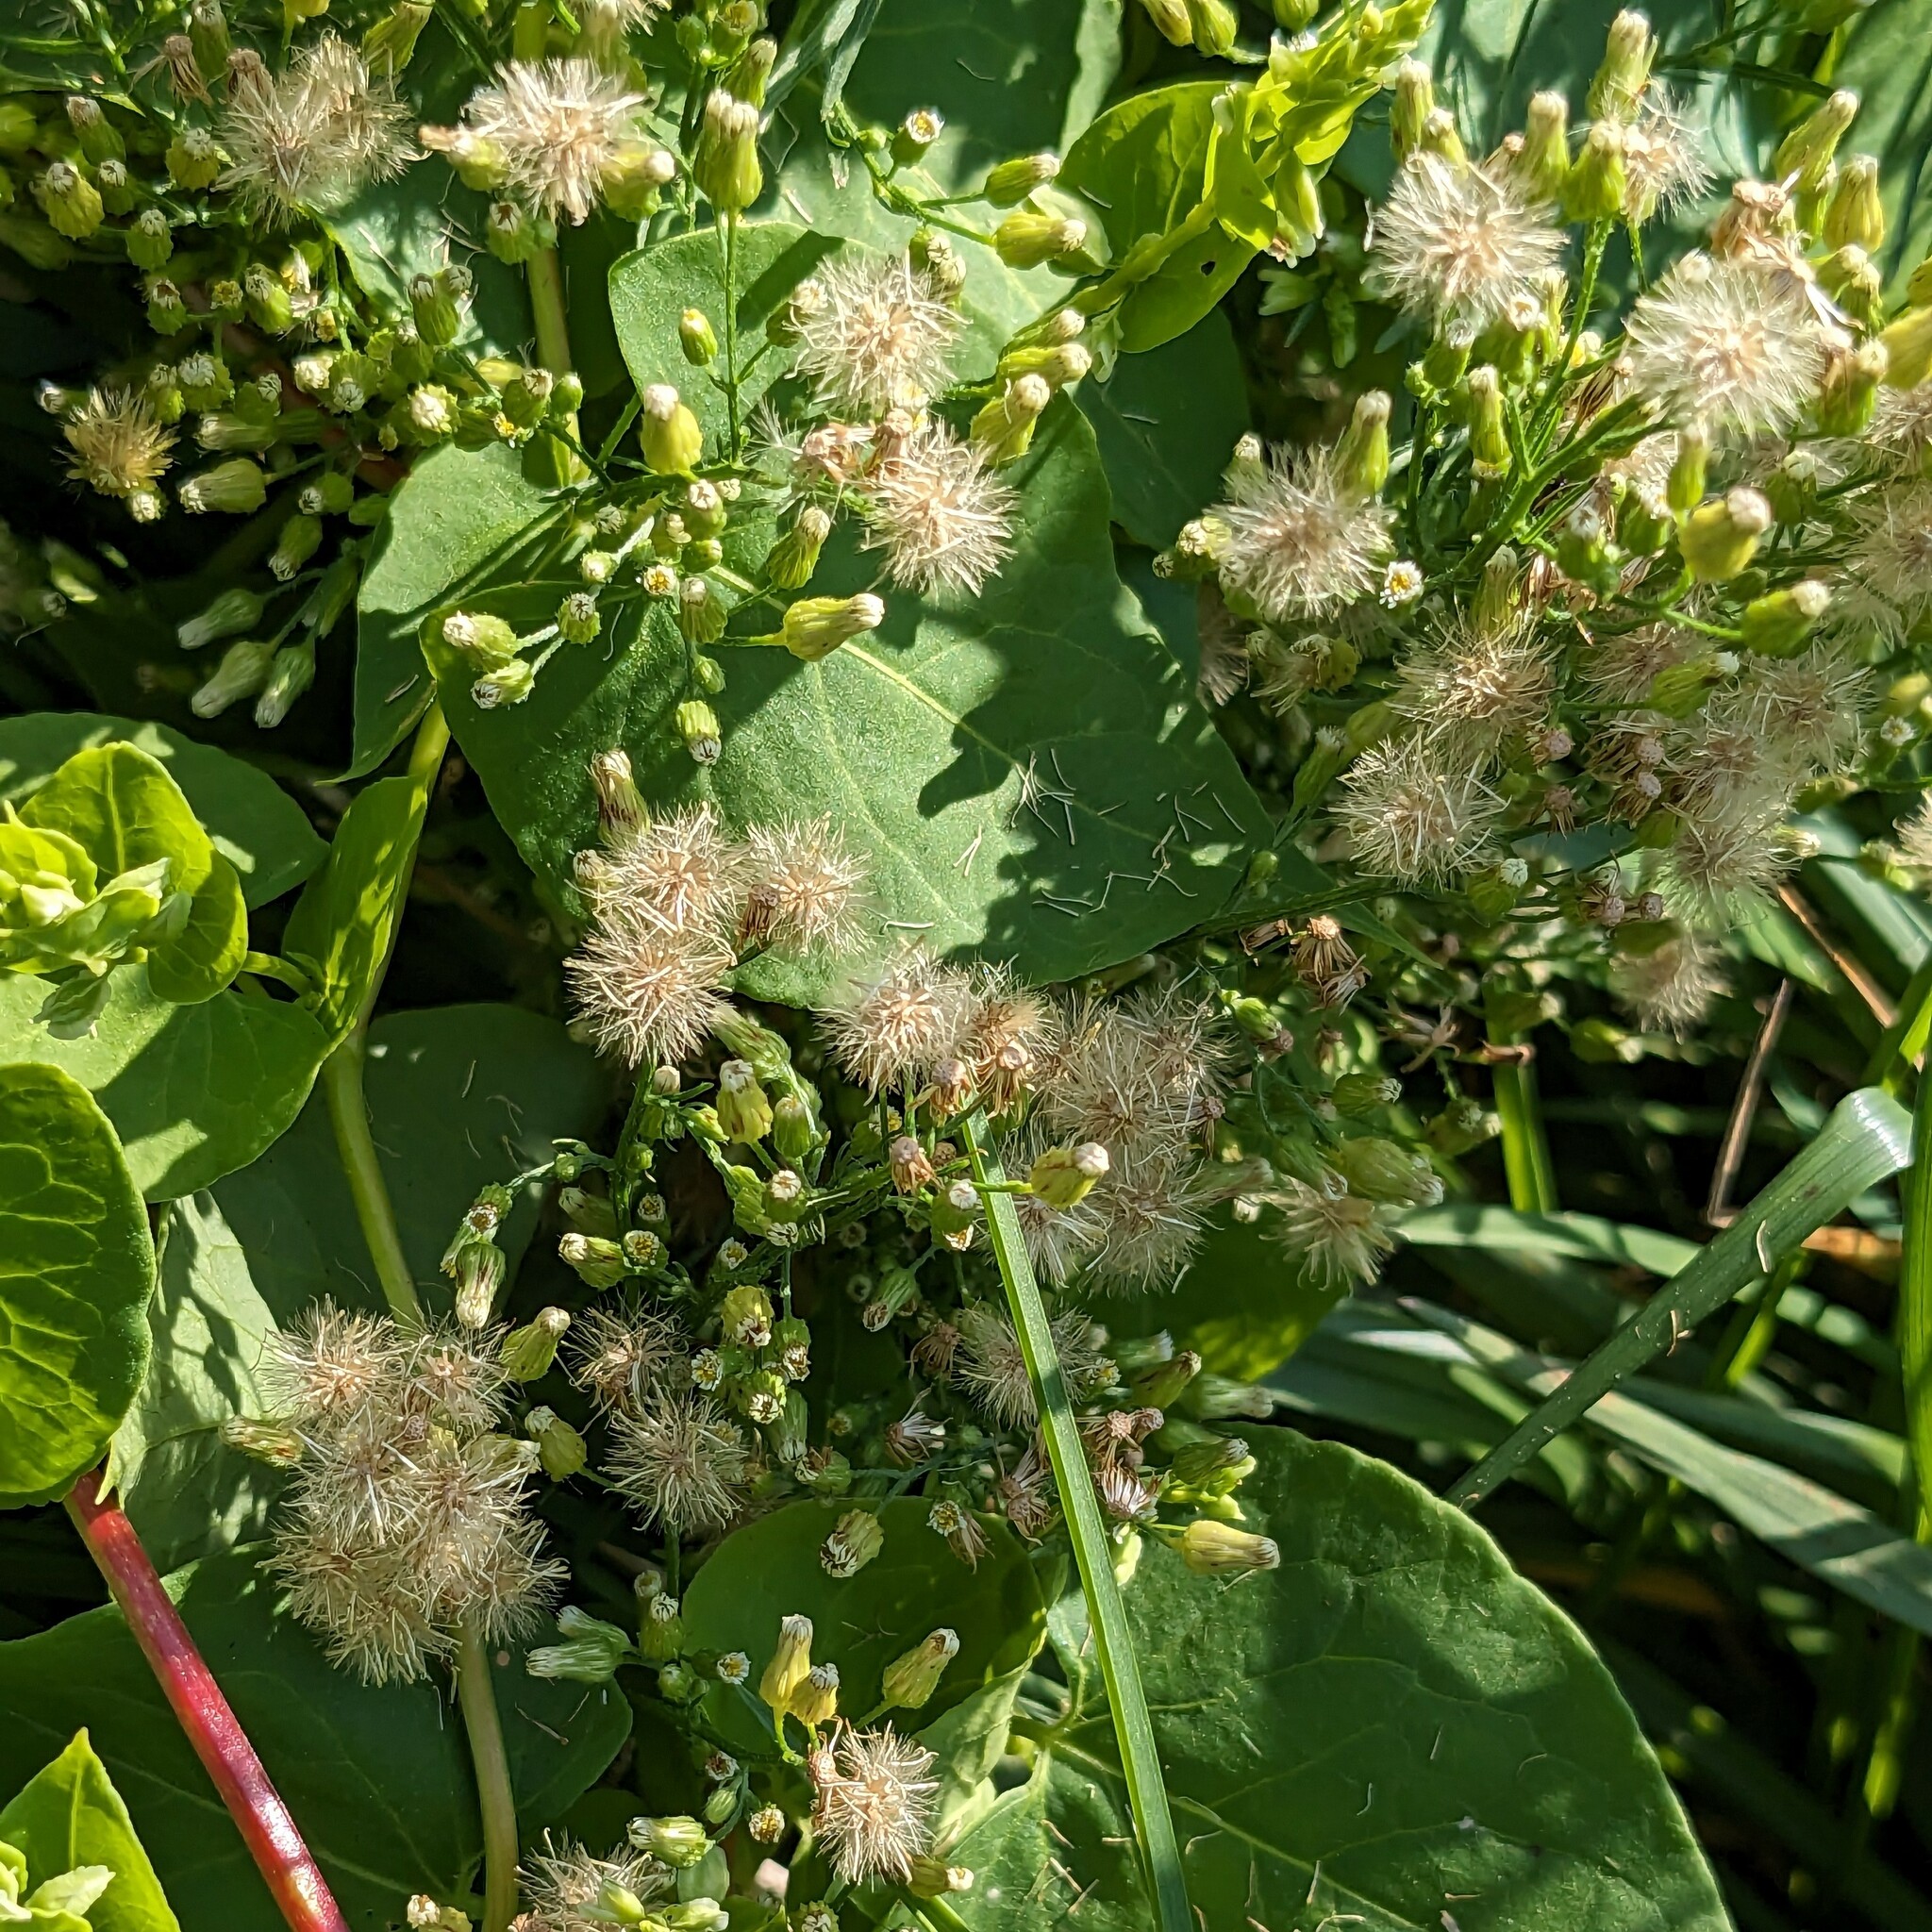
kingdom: Plantae
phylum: Tracheophyta
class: Magnoliopsida
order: Asterales
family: Asteraceae
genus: Erigeron
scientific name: Erigeron canadensis
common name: Canadian fleabane
